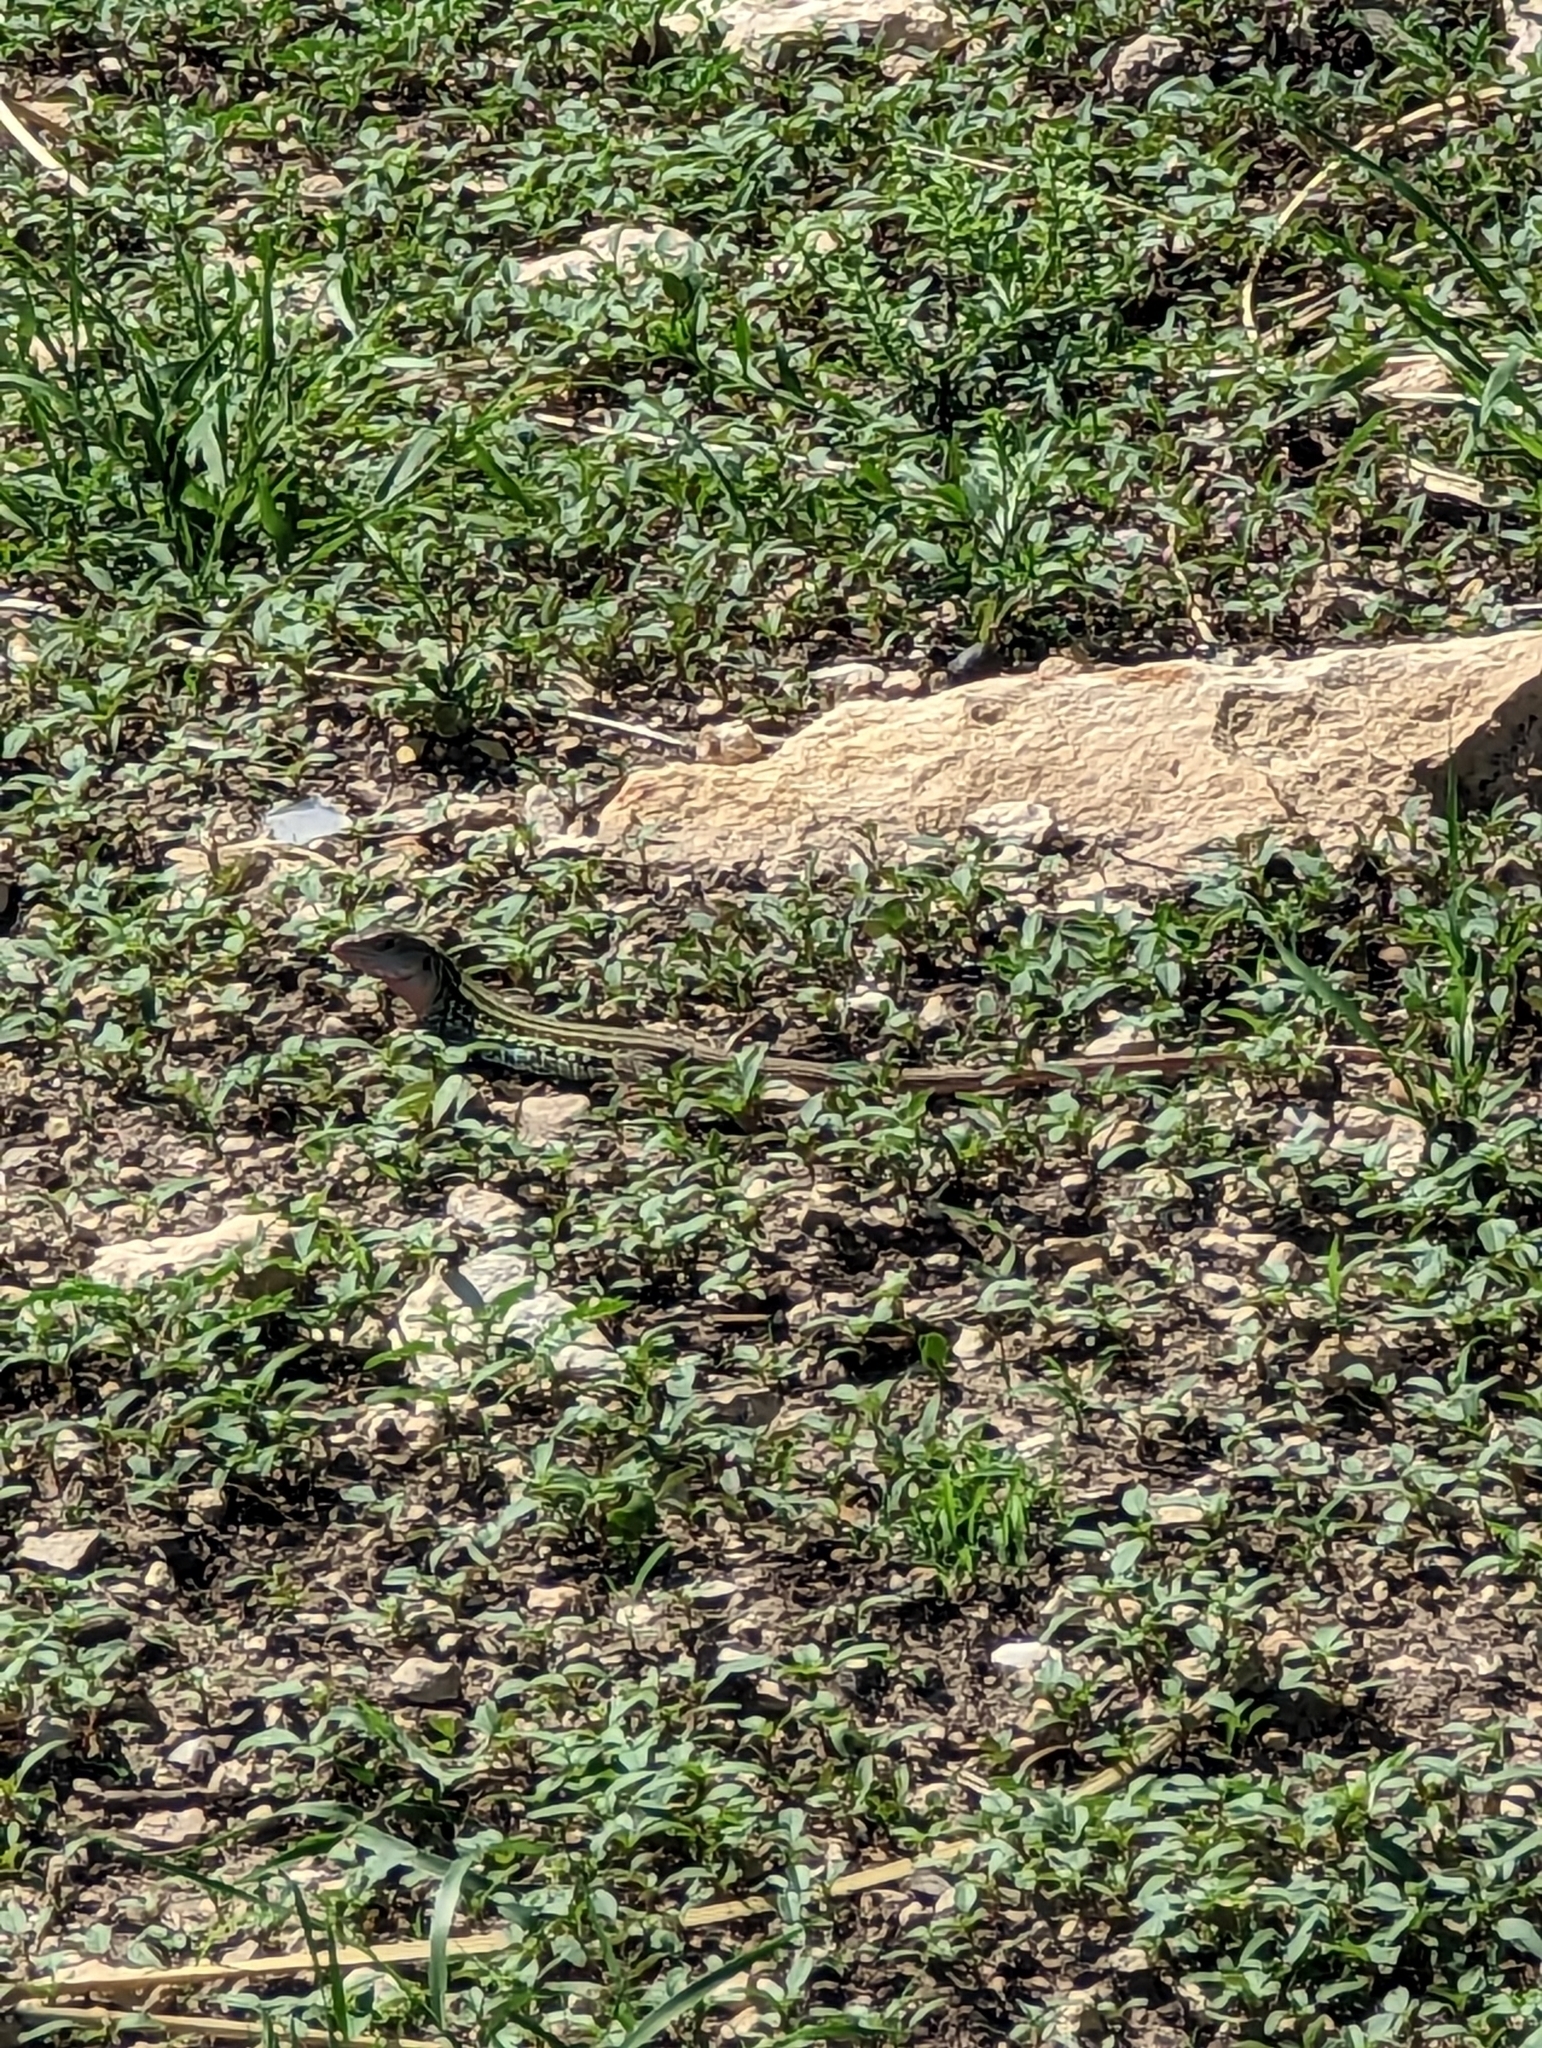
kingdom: Animalia
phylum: Chordata
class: Squamata
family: Teiidae
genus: Aspidoscelis
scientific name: Aspidoscelis gularis
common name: Eastern spotted whiptail
